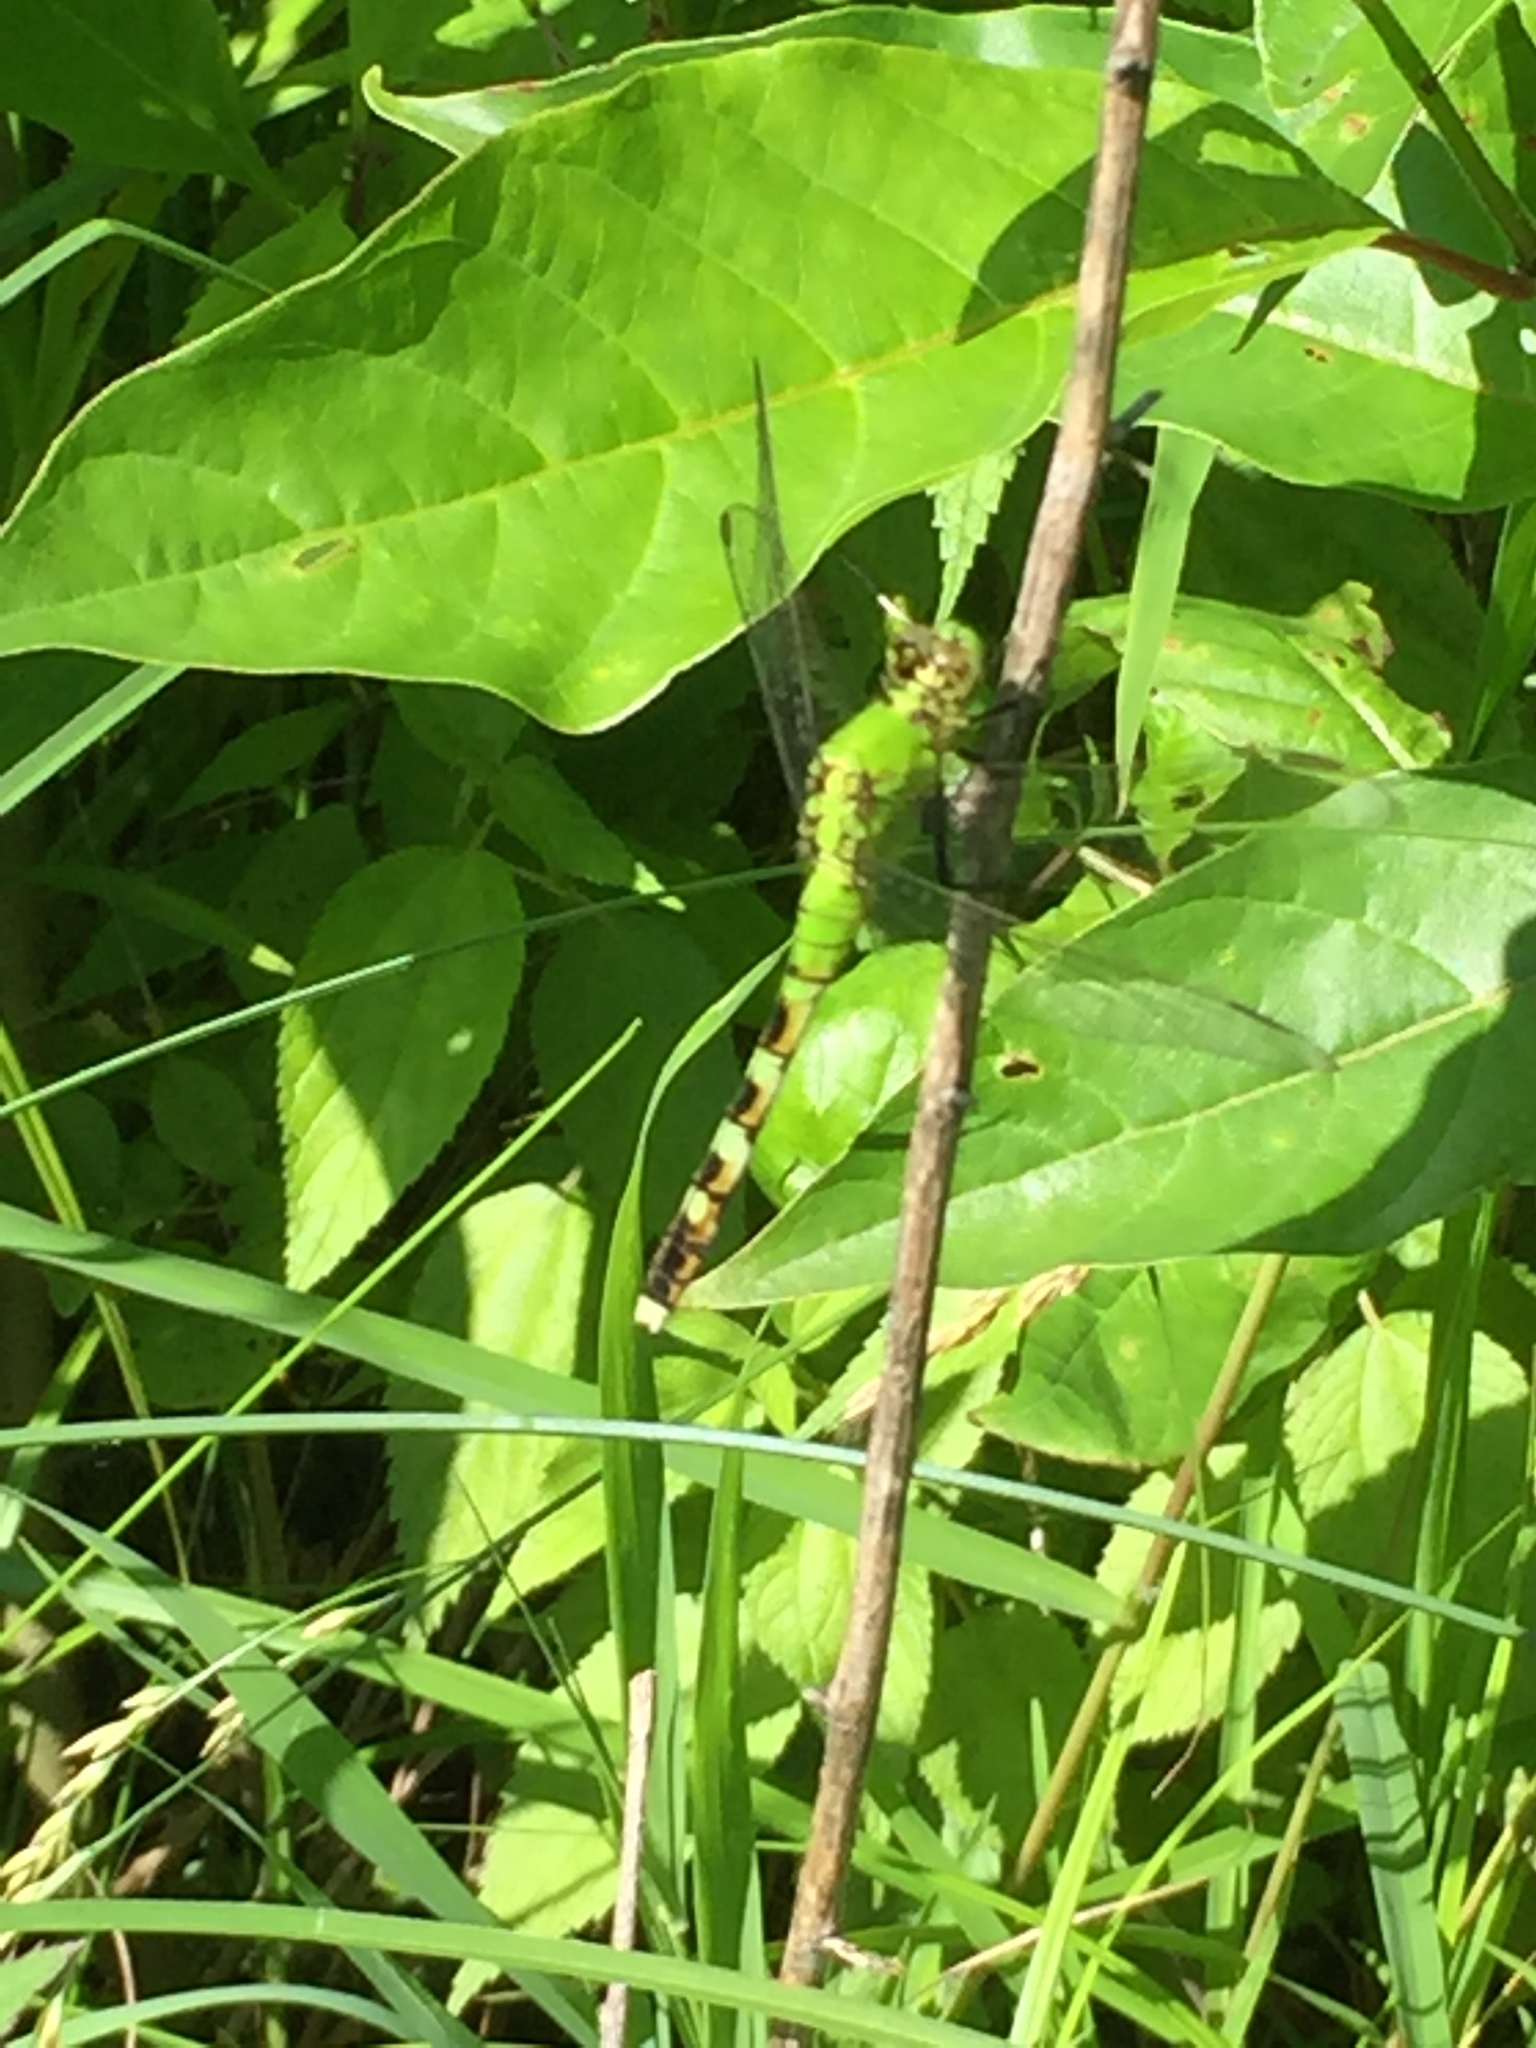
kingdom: Animalia
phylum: Arthropoda
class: Insecta
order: Odonata
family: Libellulidae
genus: Erythemis
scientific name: Erythemis simplicicollis
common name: Eastern pondhawk
